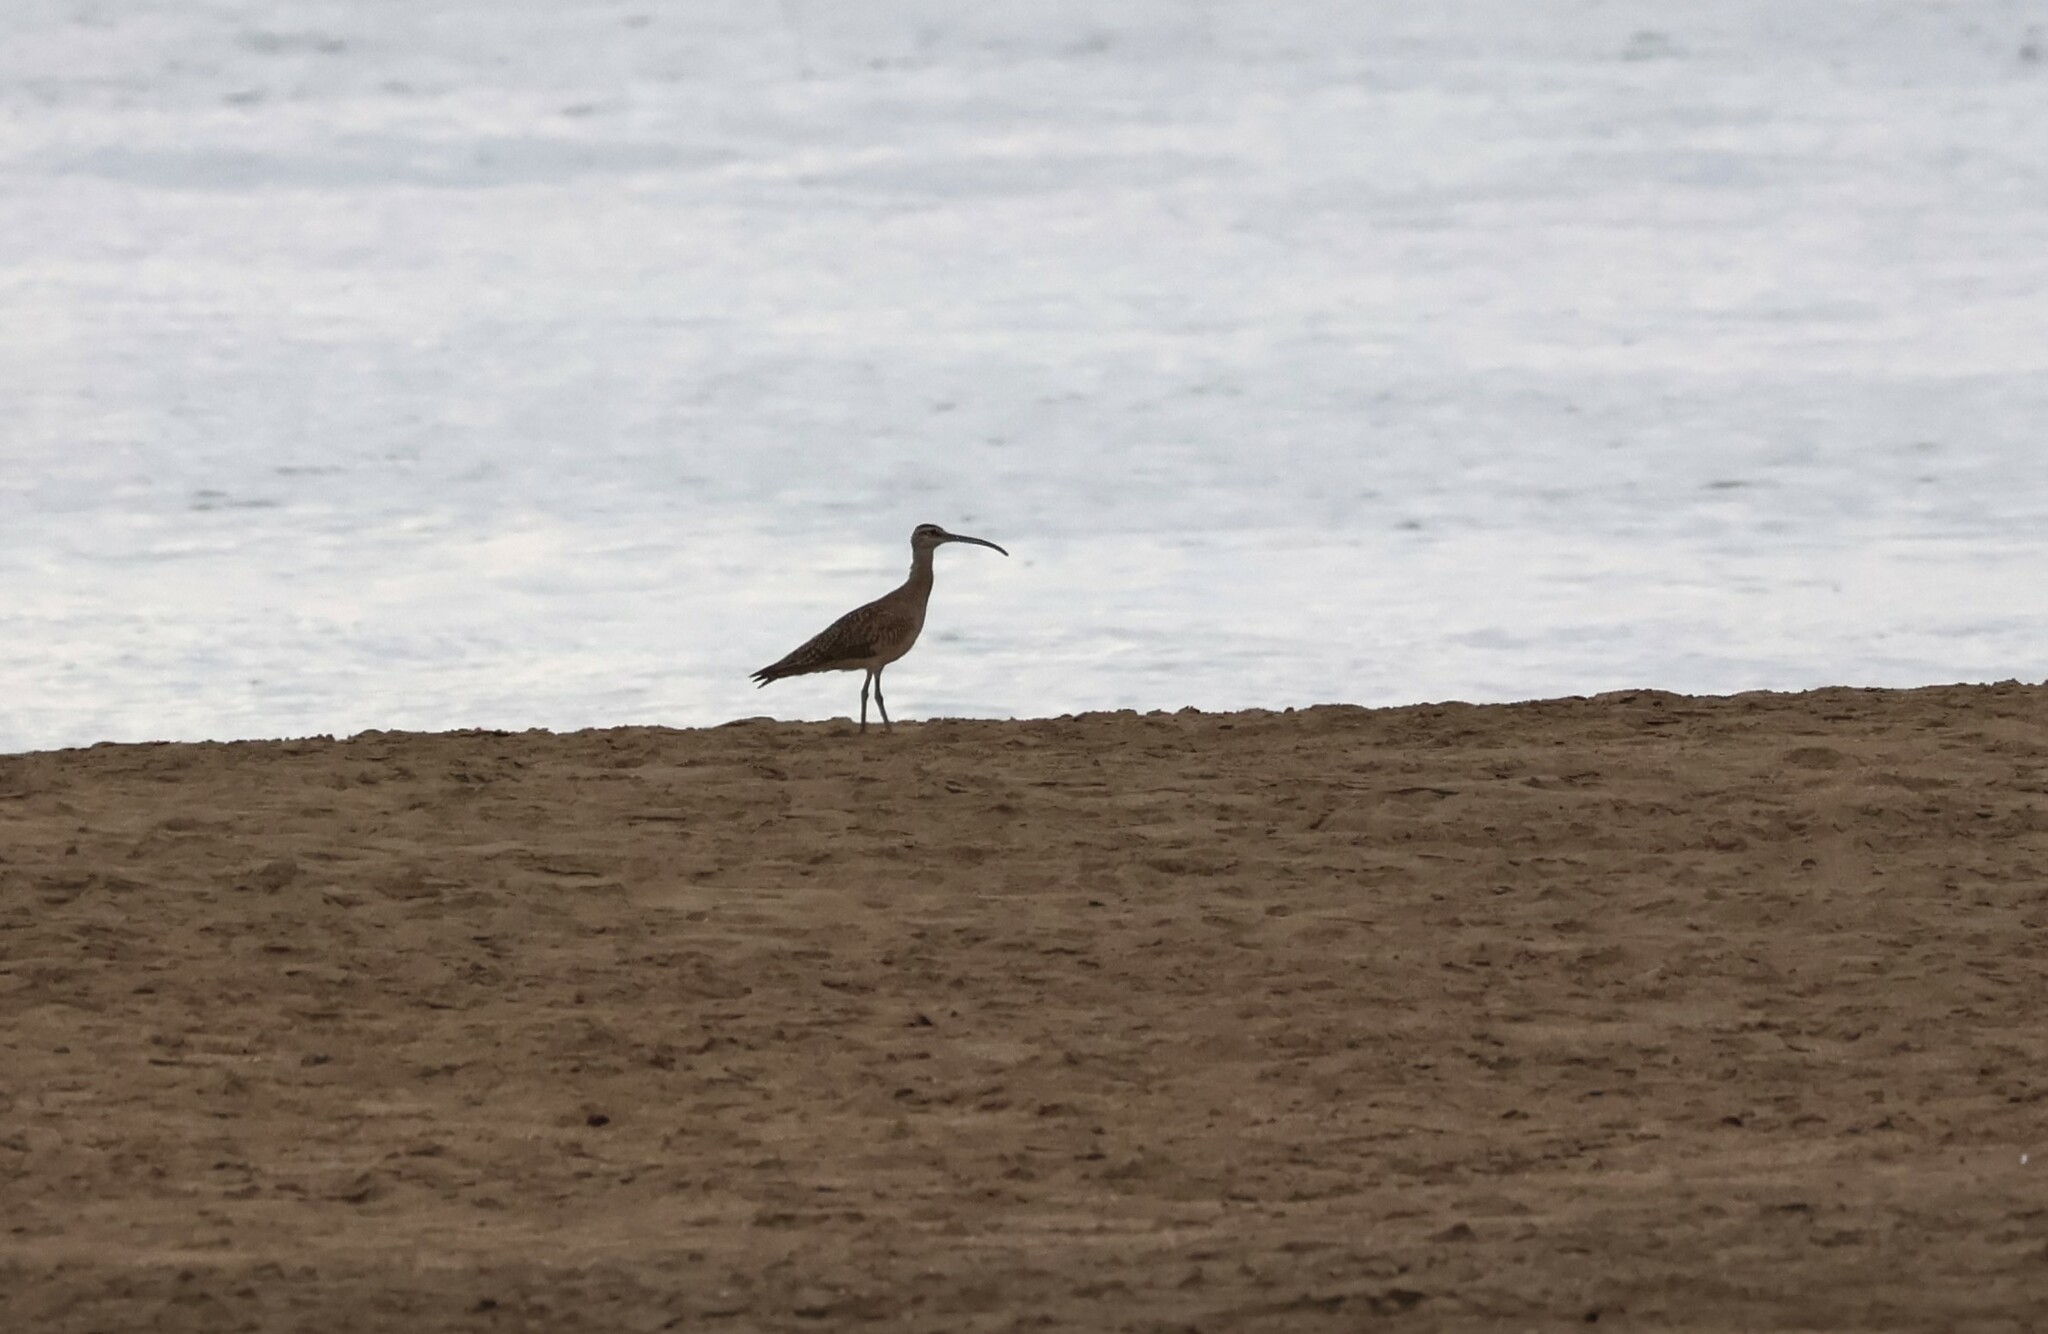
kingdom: Animalia
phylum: Chordata
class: Aves
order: Charadriiformes
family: Scolopacidae
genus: Numenius
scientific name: Numenius phaeopus
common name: Whimbrel
